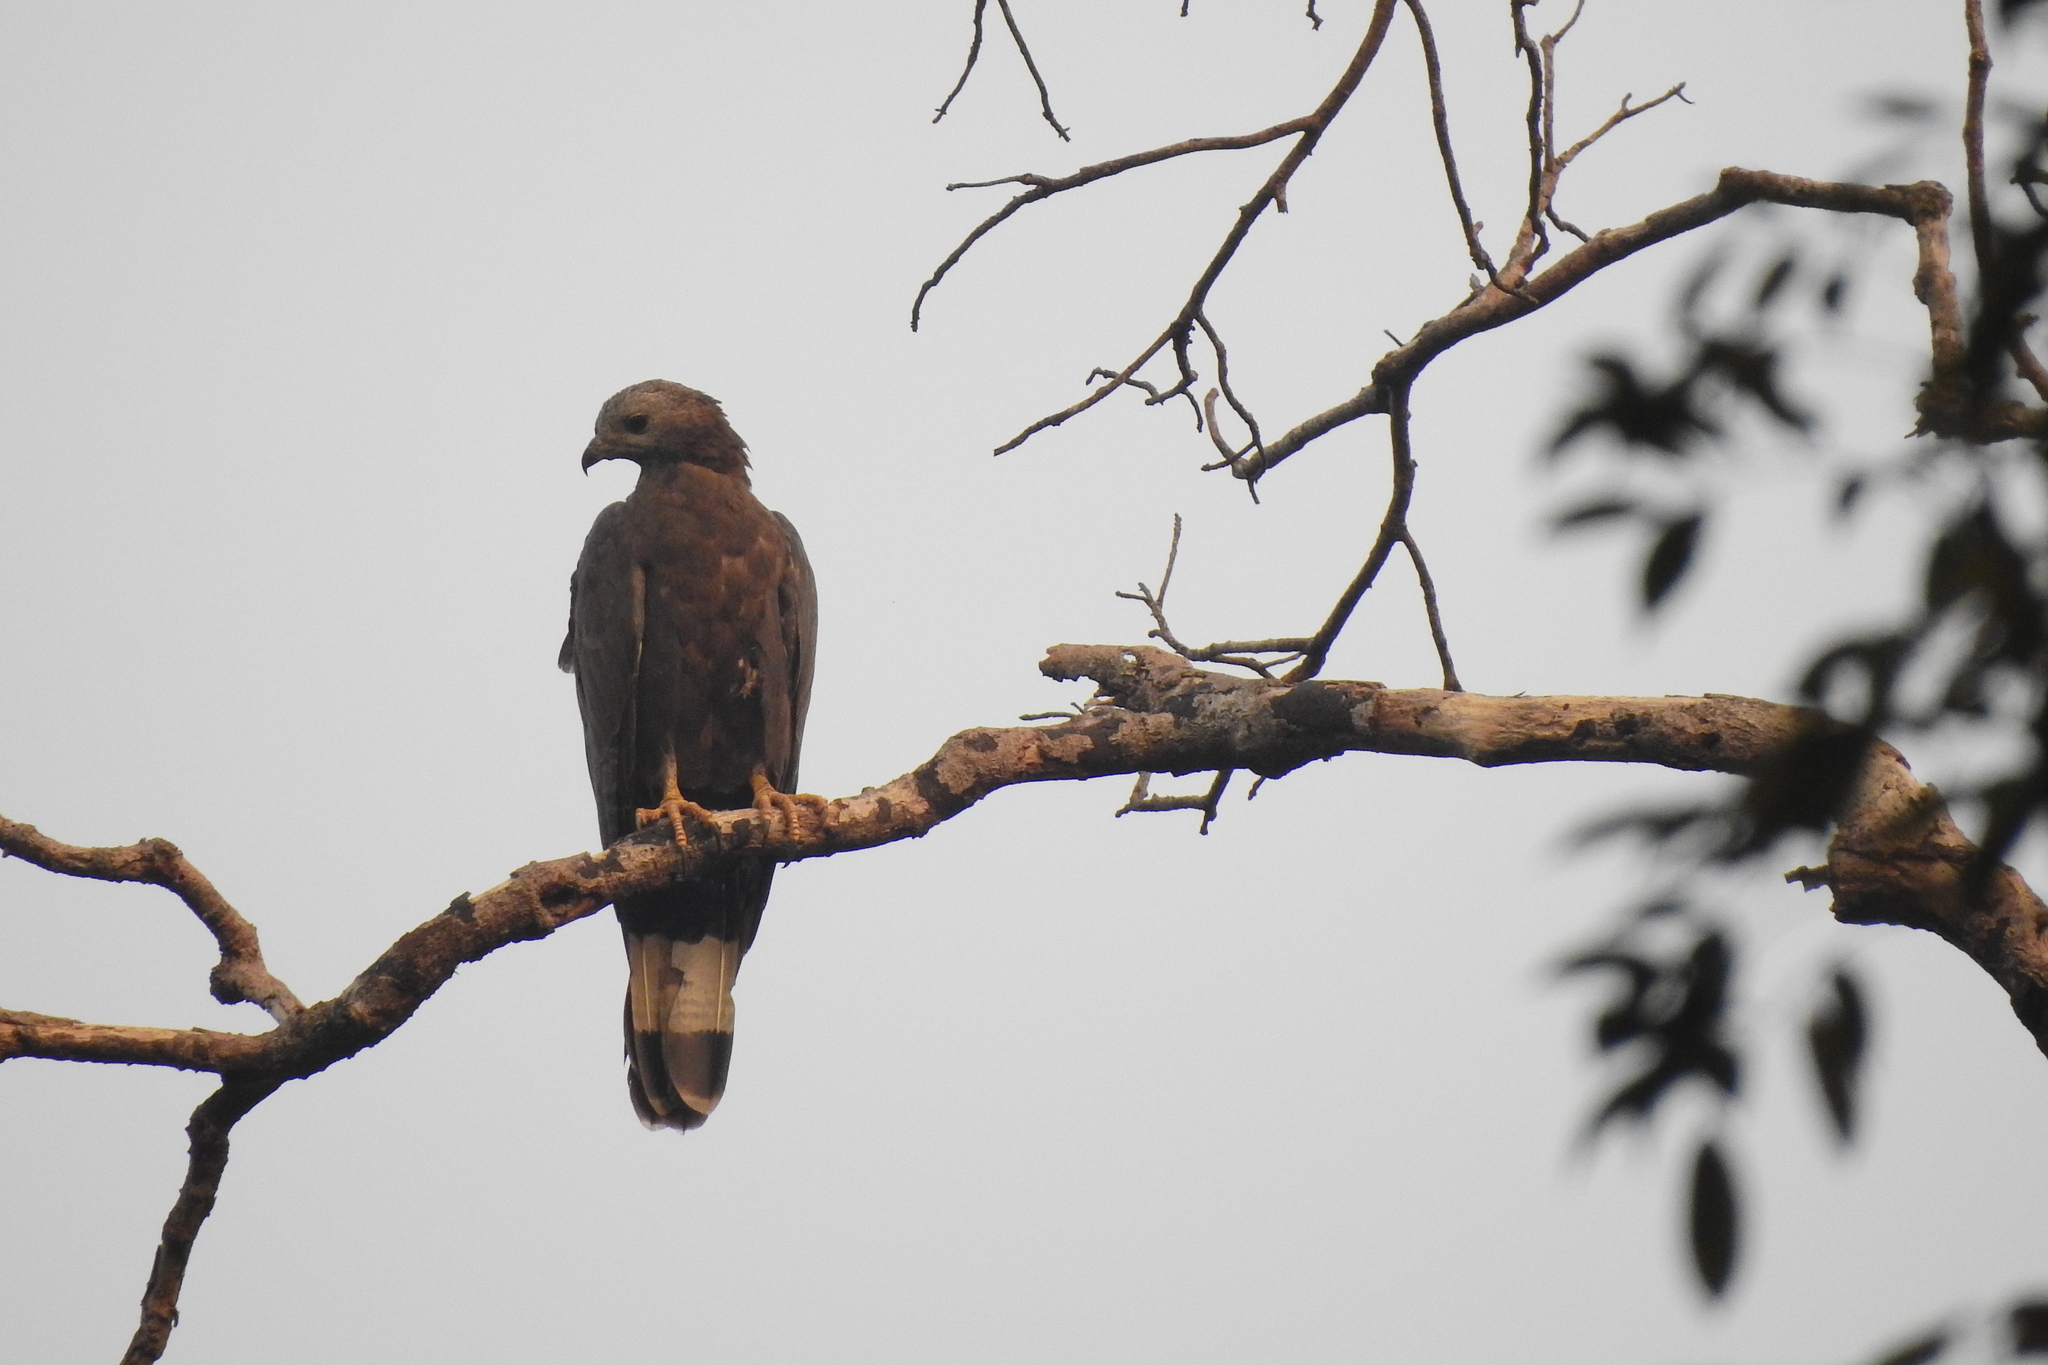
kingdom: Animalia
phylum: Chordata
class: Aves
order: Accipitriformes
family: Accipitridae
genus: Pernis
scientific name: Pernis ptilorhynchus
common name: Crested honey buzzard
